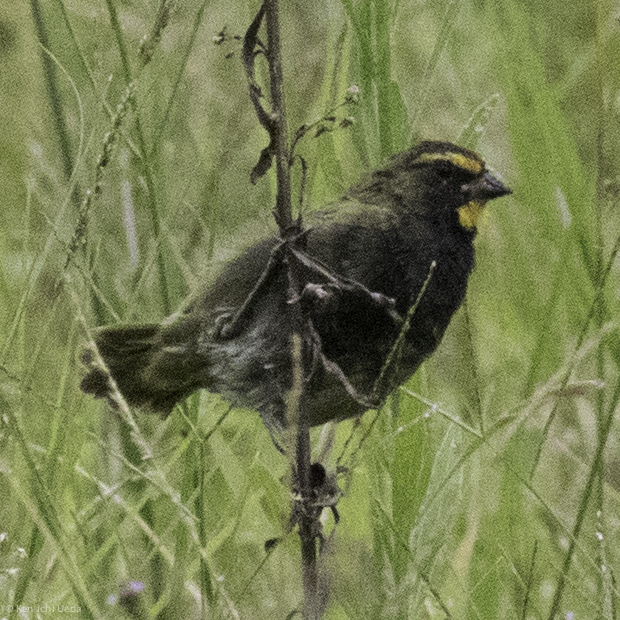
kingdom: Animalia
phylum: Chordata
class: Aves
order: Passeriformes
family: Thraupidae
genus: Tiaris
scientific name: Tiaris olivaceus
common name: Yellow-faced grassquit
